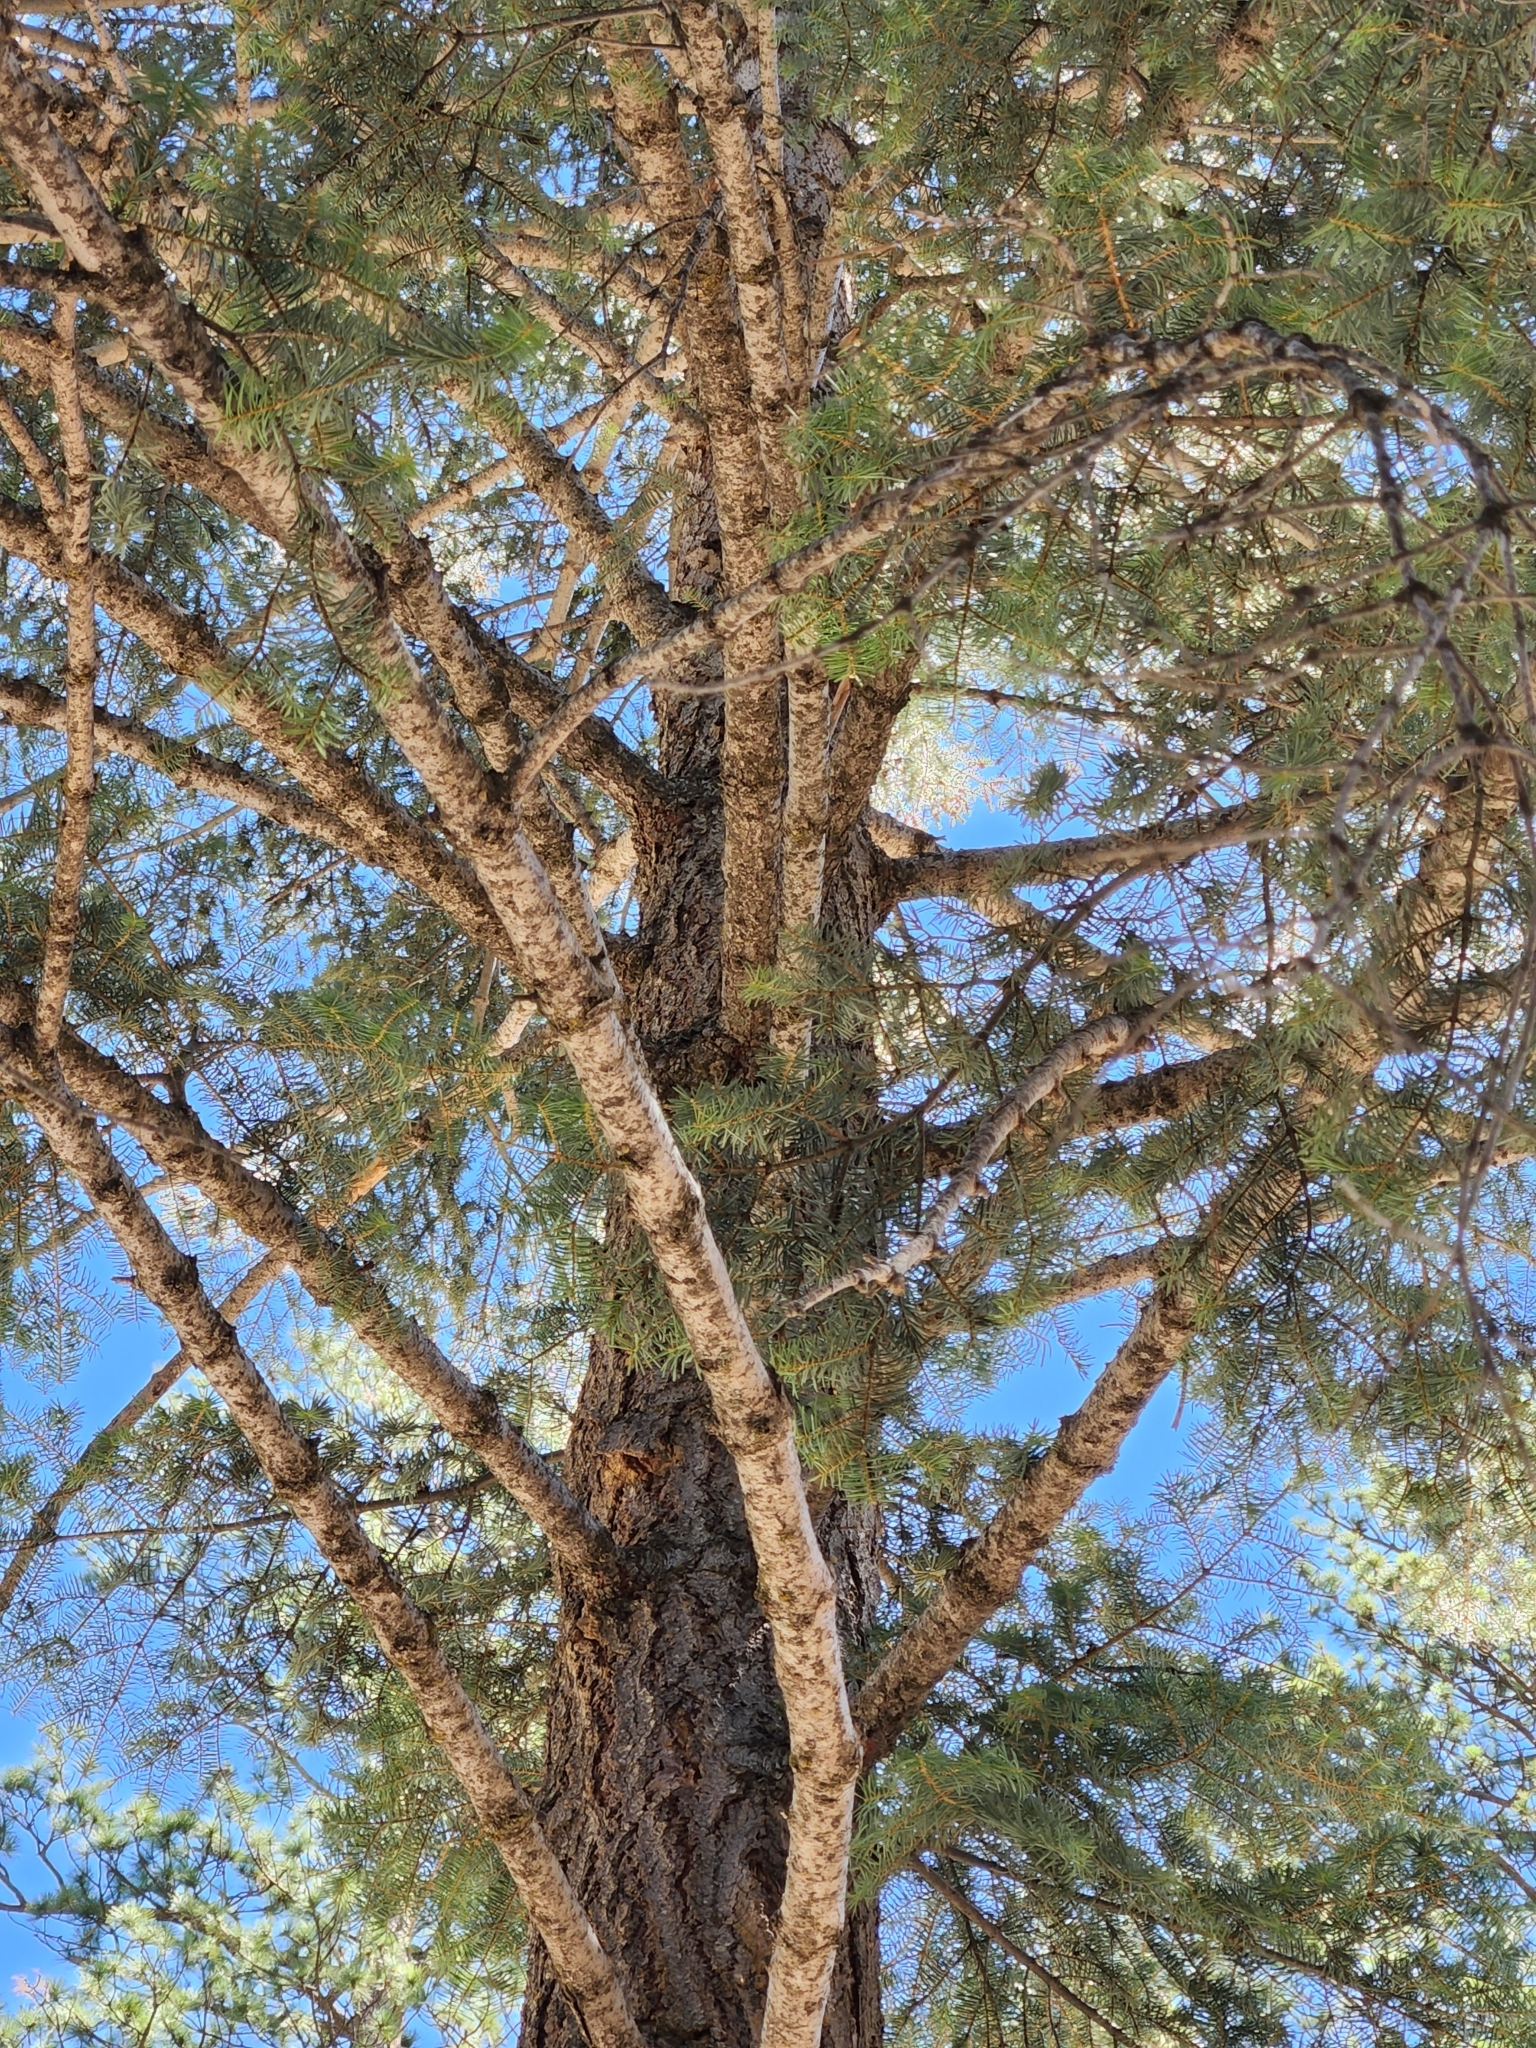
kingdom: Plantae
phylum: Tracheophyta
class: Pinopsida
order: Pinales
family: Pinaceae
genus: Abies
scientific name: Abies concolor
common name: Colorado fir
